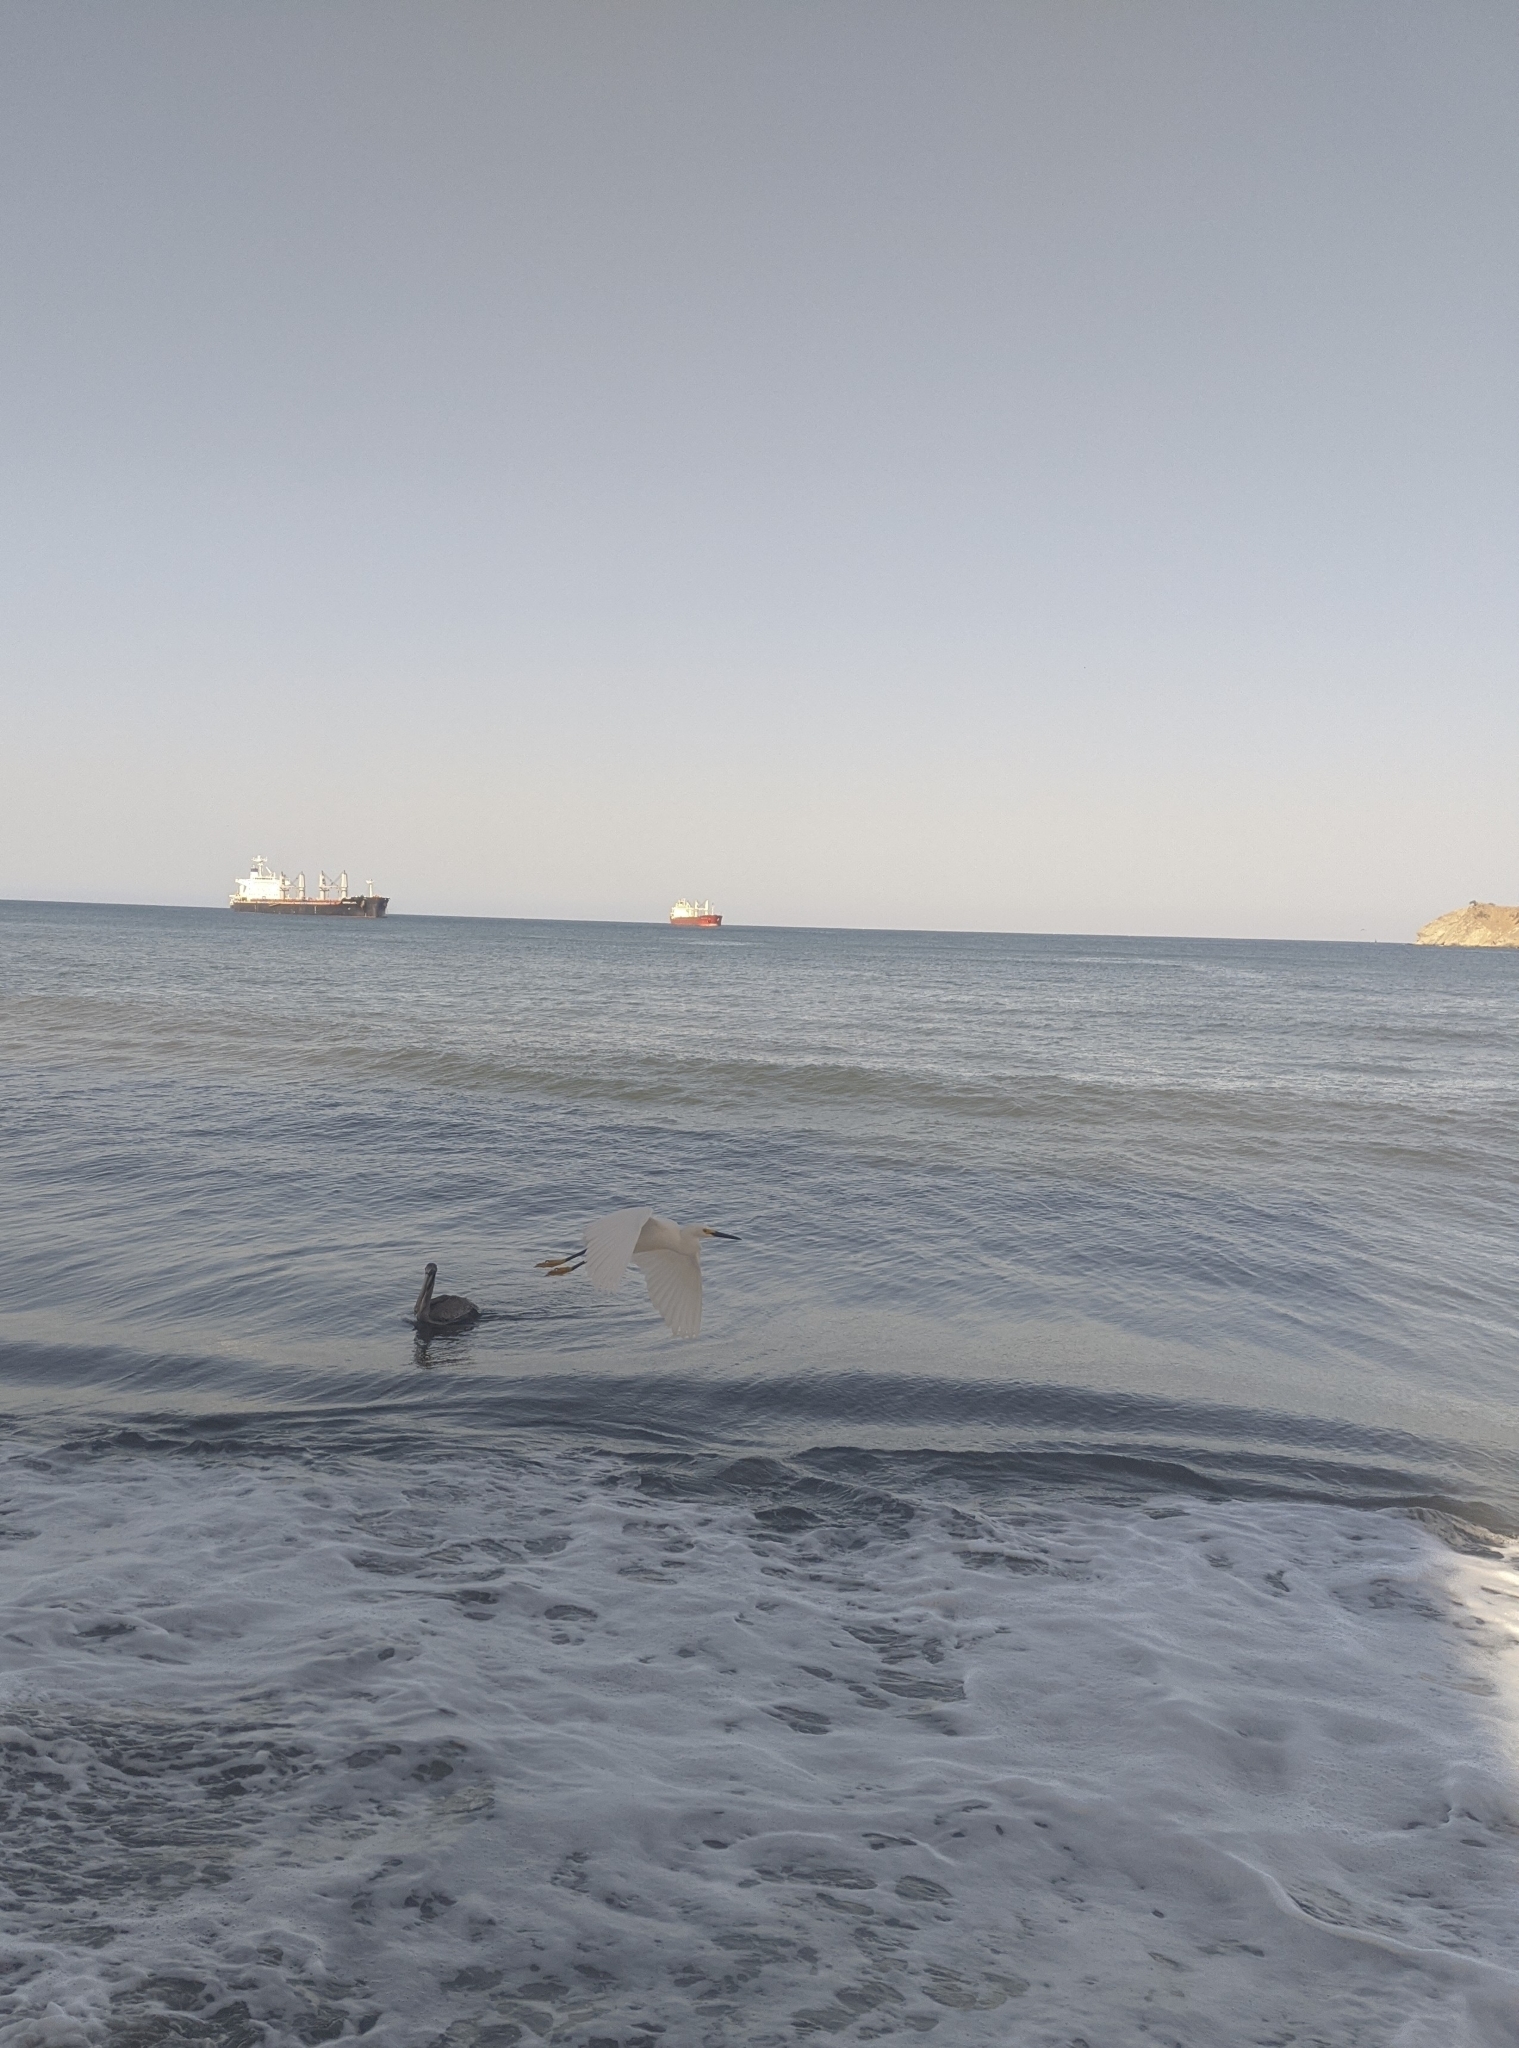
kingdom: Animalia
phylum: Chordata
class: Aves
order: Pelecaniformes
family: Ardeidae
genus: Egretta
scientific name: Egretta thula
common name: Snowy egret
